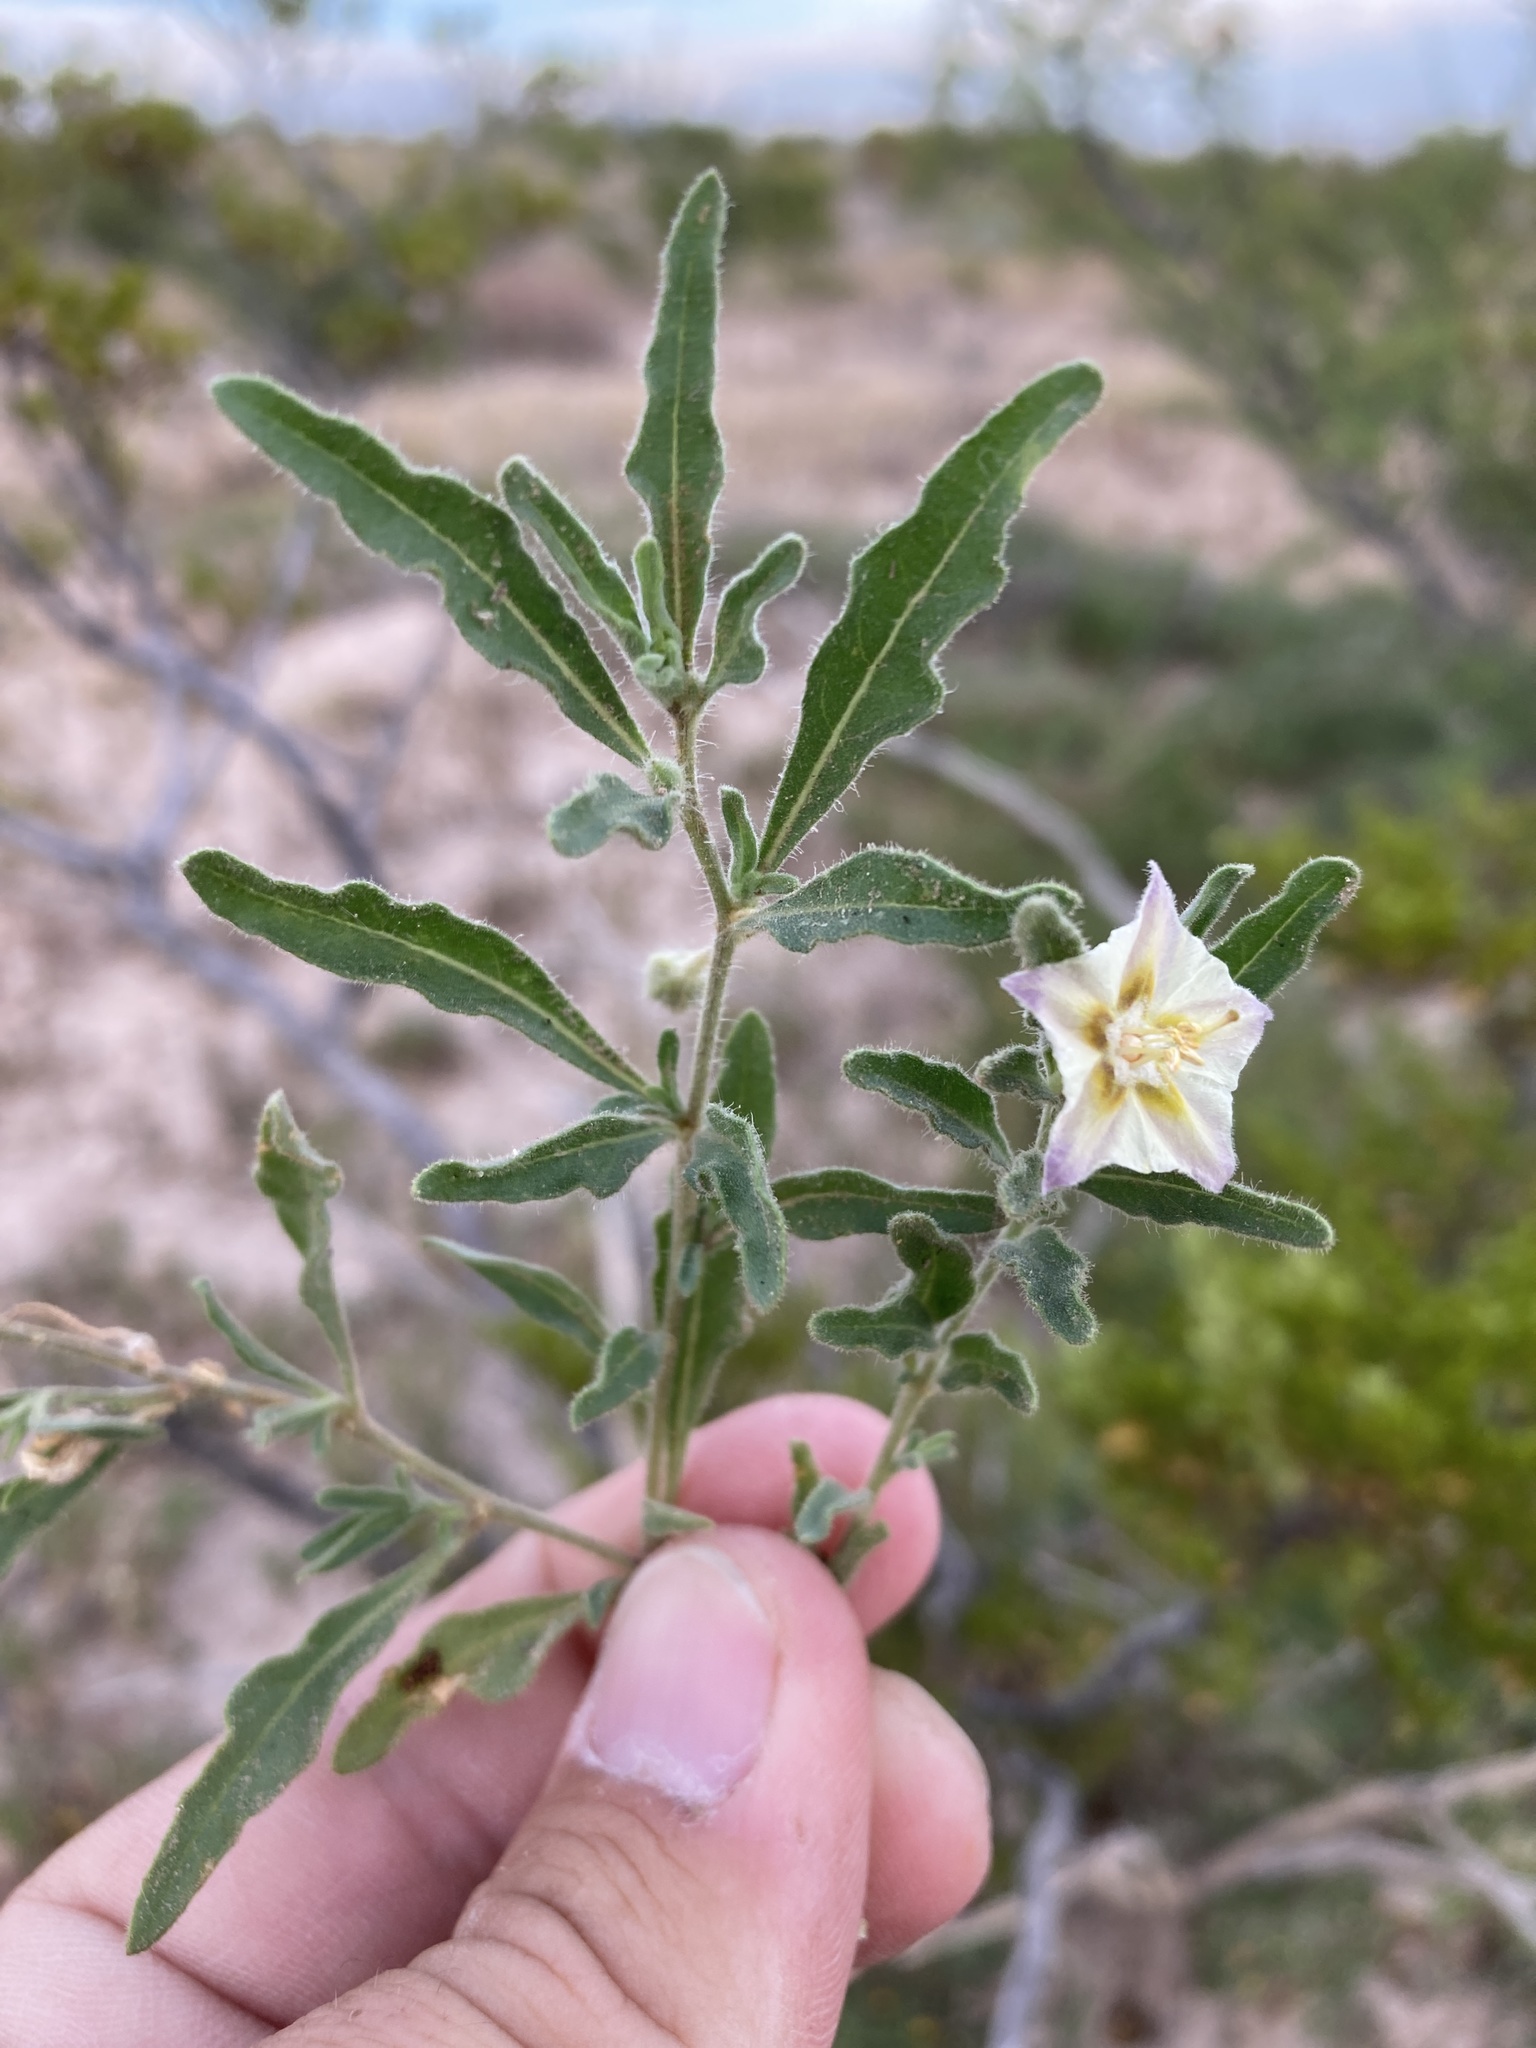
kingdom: Plantae
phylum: Tracheophyta
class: Magnoliopsida
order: Solanales
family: Solanaceae
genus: Chamaesaracha
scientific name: Chamaesaracha sordida
